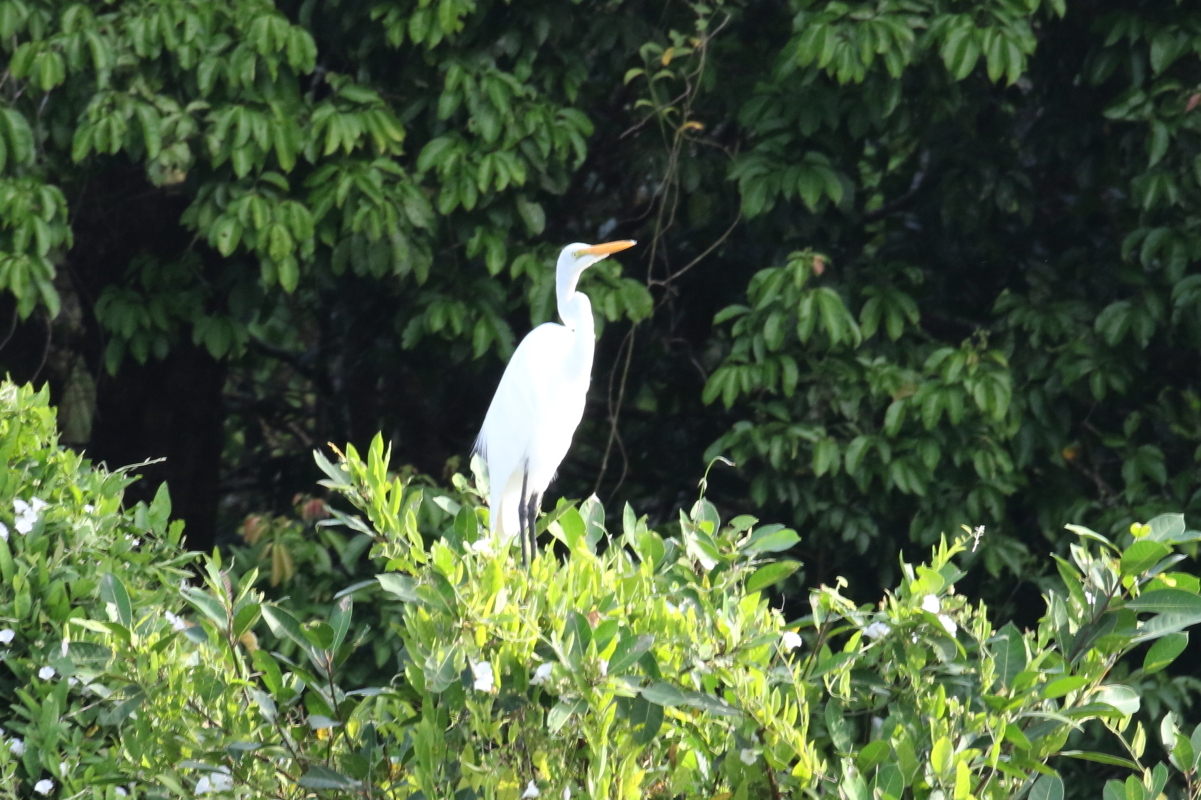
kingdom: Animalia
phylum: Chordata
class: Aves
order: Pelecaniformes
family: Ardeidae
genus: Ardea
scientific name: Ardea alba
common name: Great egret
